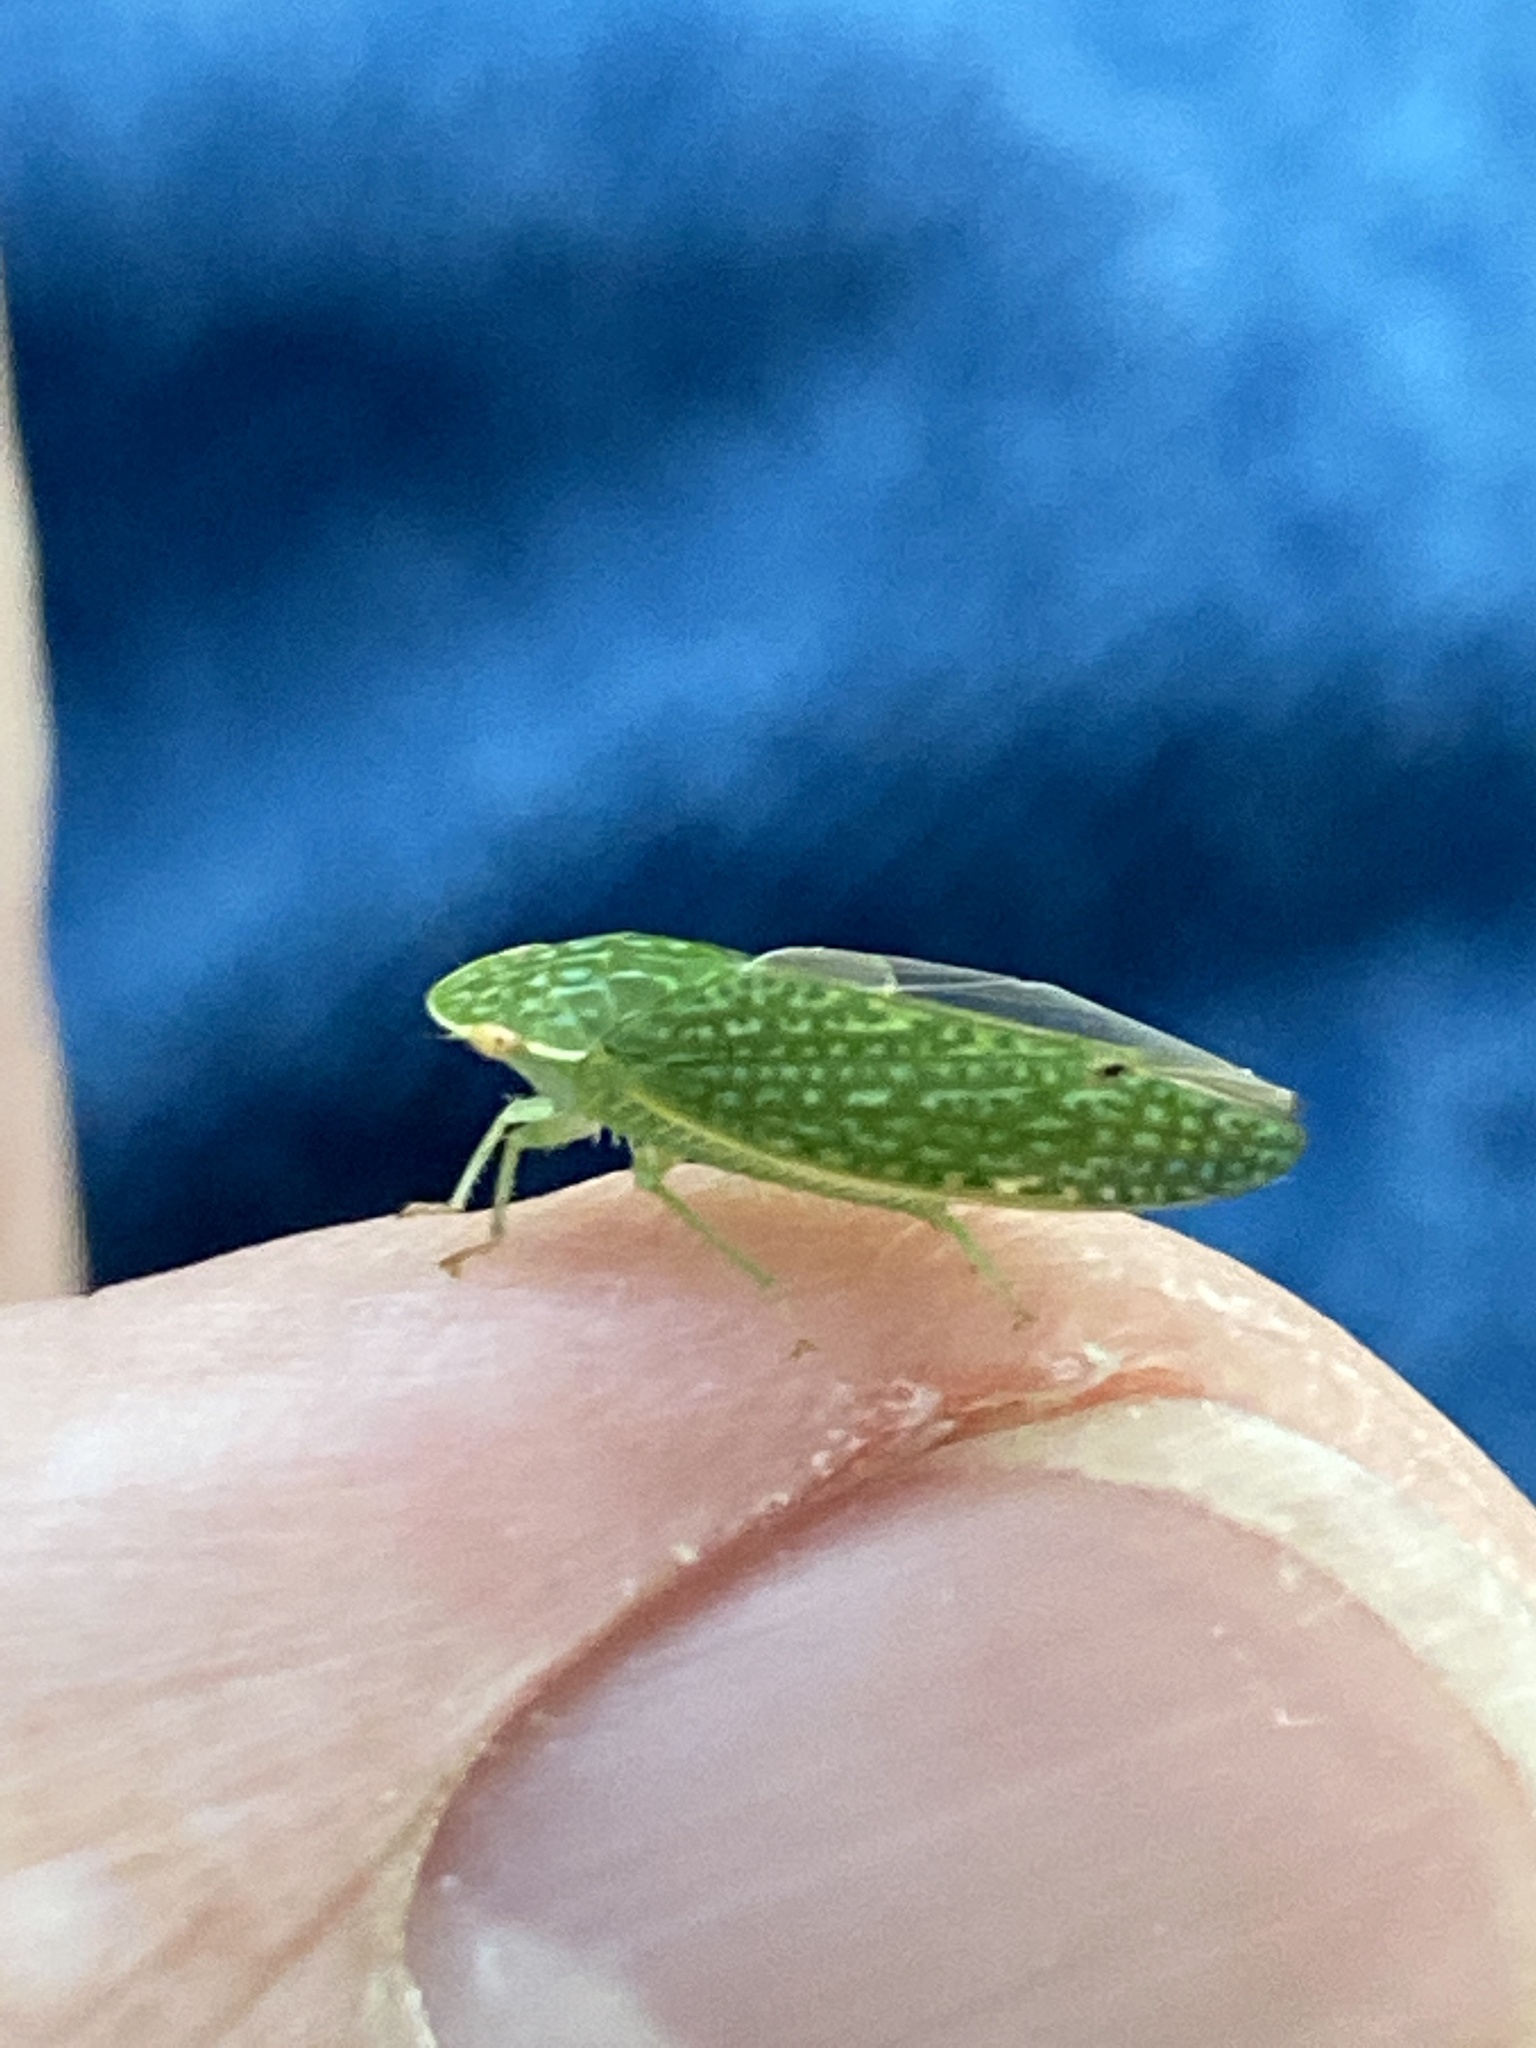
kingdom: Animalia
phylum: Arthropoda
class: Insecta
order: Hemiptera
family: Cicadellidae
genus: Rugosana
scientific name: Rugosana querci
